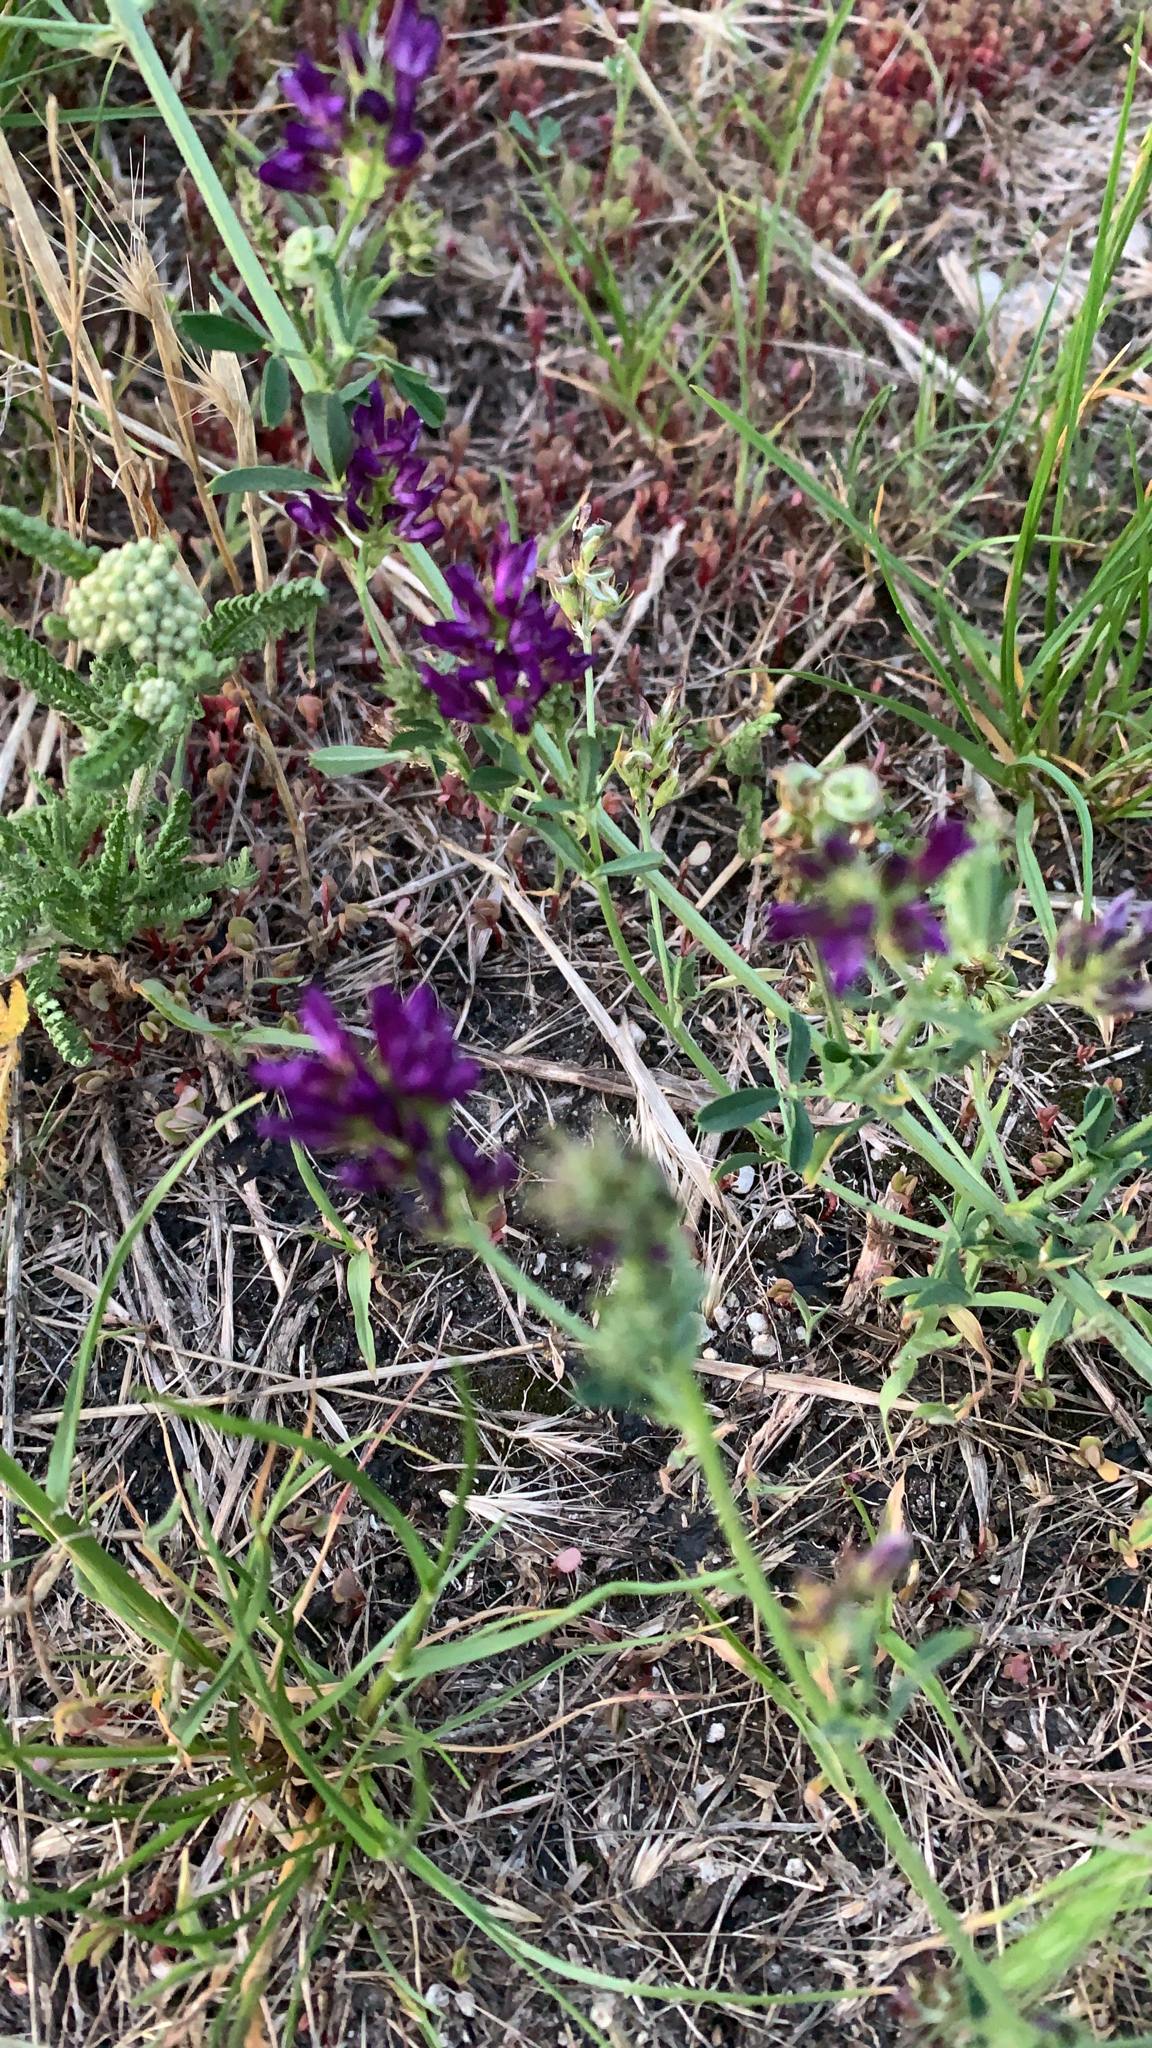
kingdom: Plantae
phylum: Tracheophyta
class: Magnoliopsida
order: Fabales
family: Fabaceae
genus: Medicago
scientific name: Medicago sativa
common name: Alfalfa
